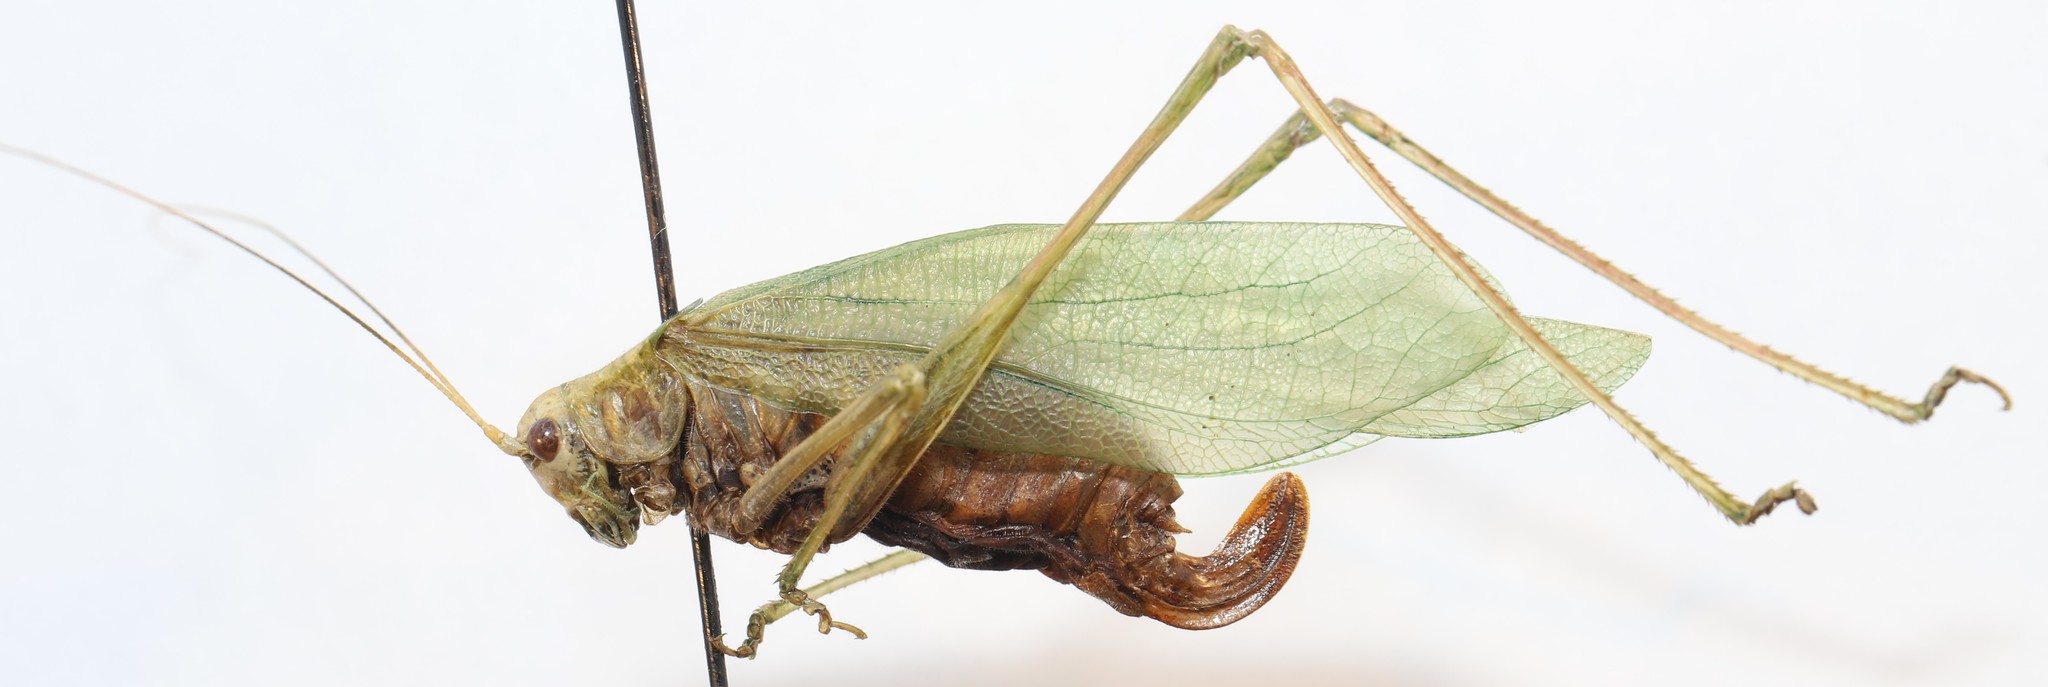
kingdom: Animalia
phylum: Arthropoda
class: Insecta
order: Orthoptera
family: Tettigoniidae
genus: Scudderia
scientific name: Scudderia pistillata
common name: Broad-winged bush-katydid
